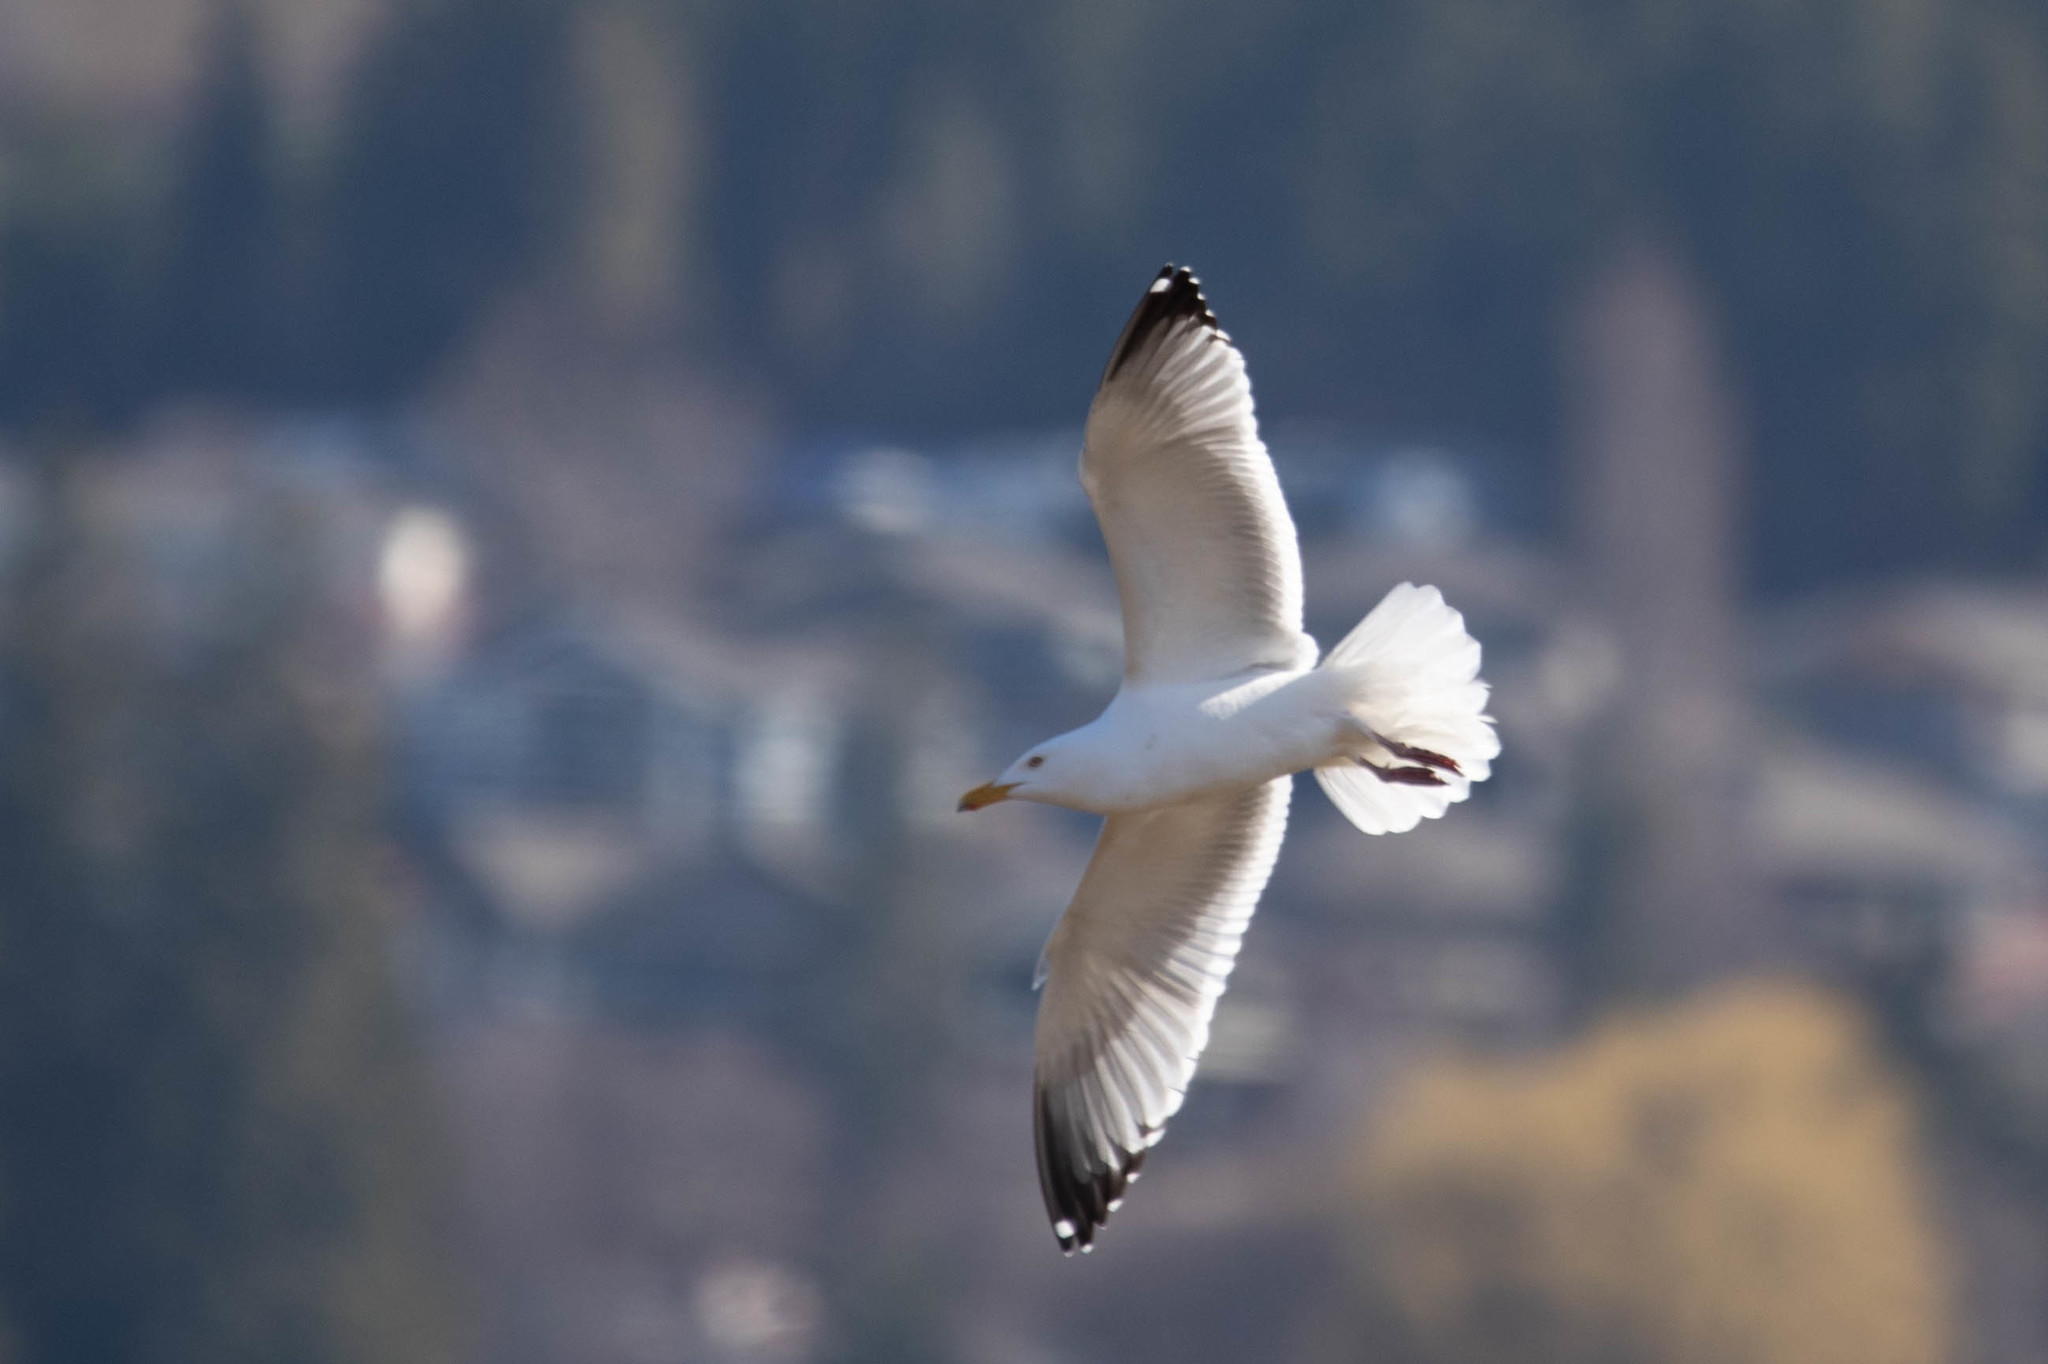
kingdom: Animalia
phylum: Chordata
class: Aves
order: Charadriiformes
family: Laridae
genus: Larus
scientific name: Larus argentatus
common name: Herring gull
